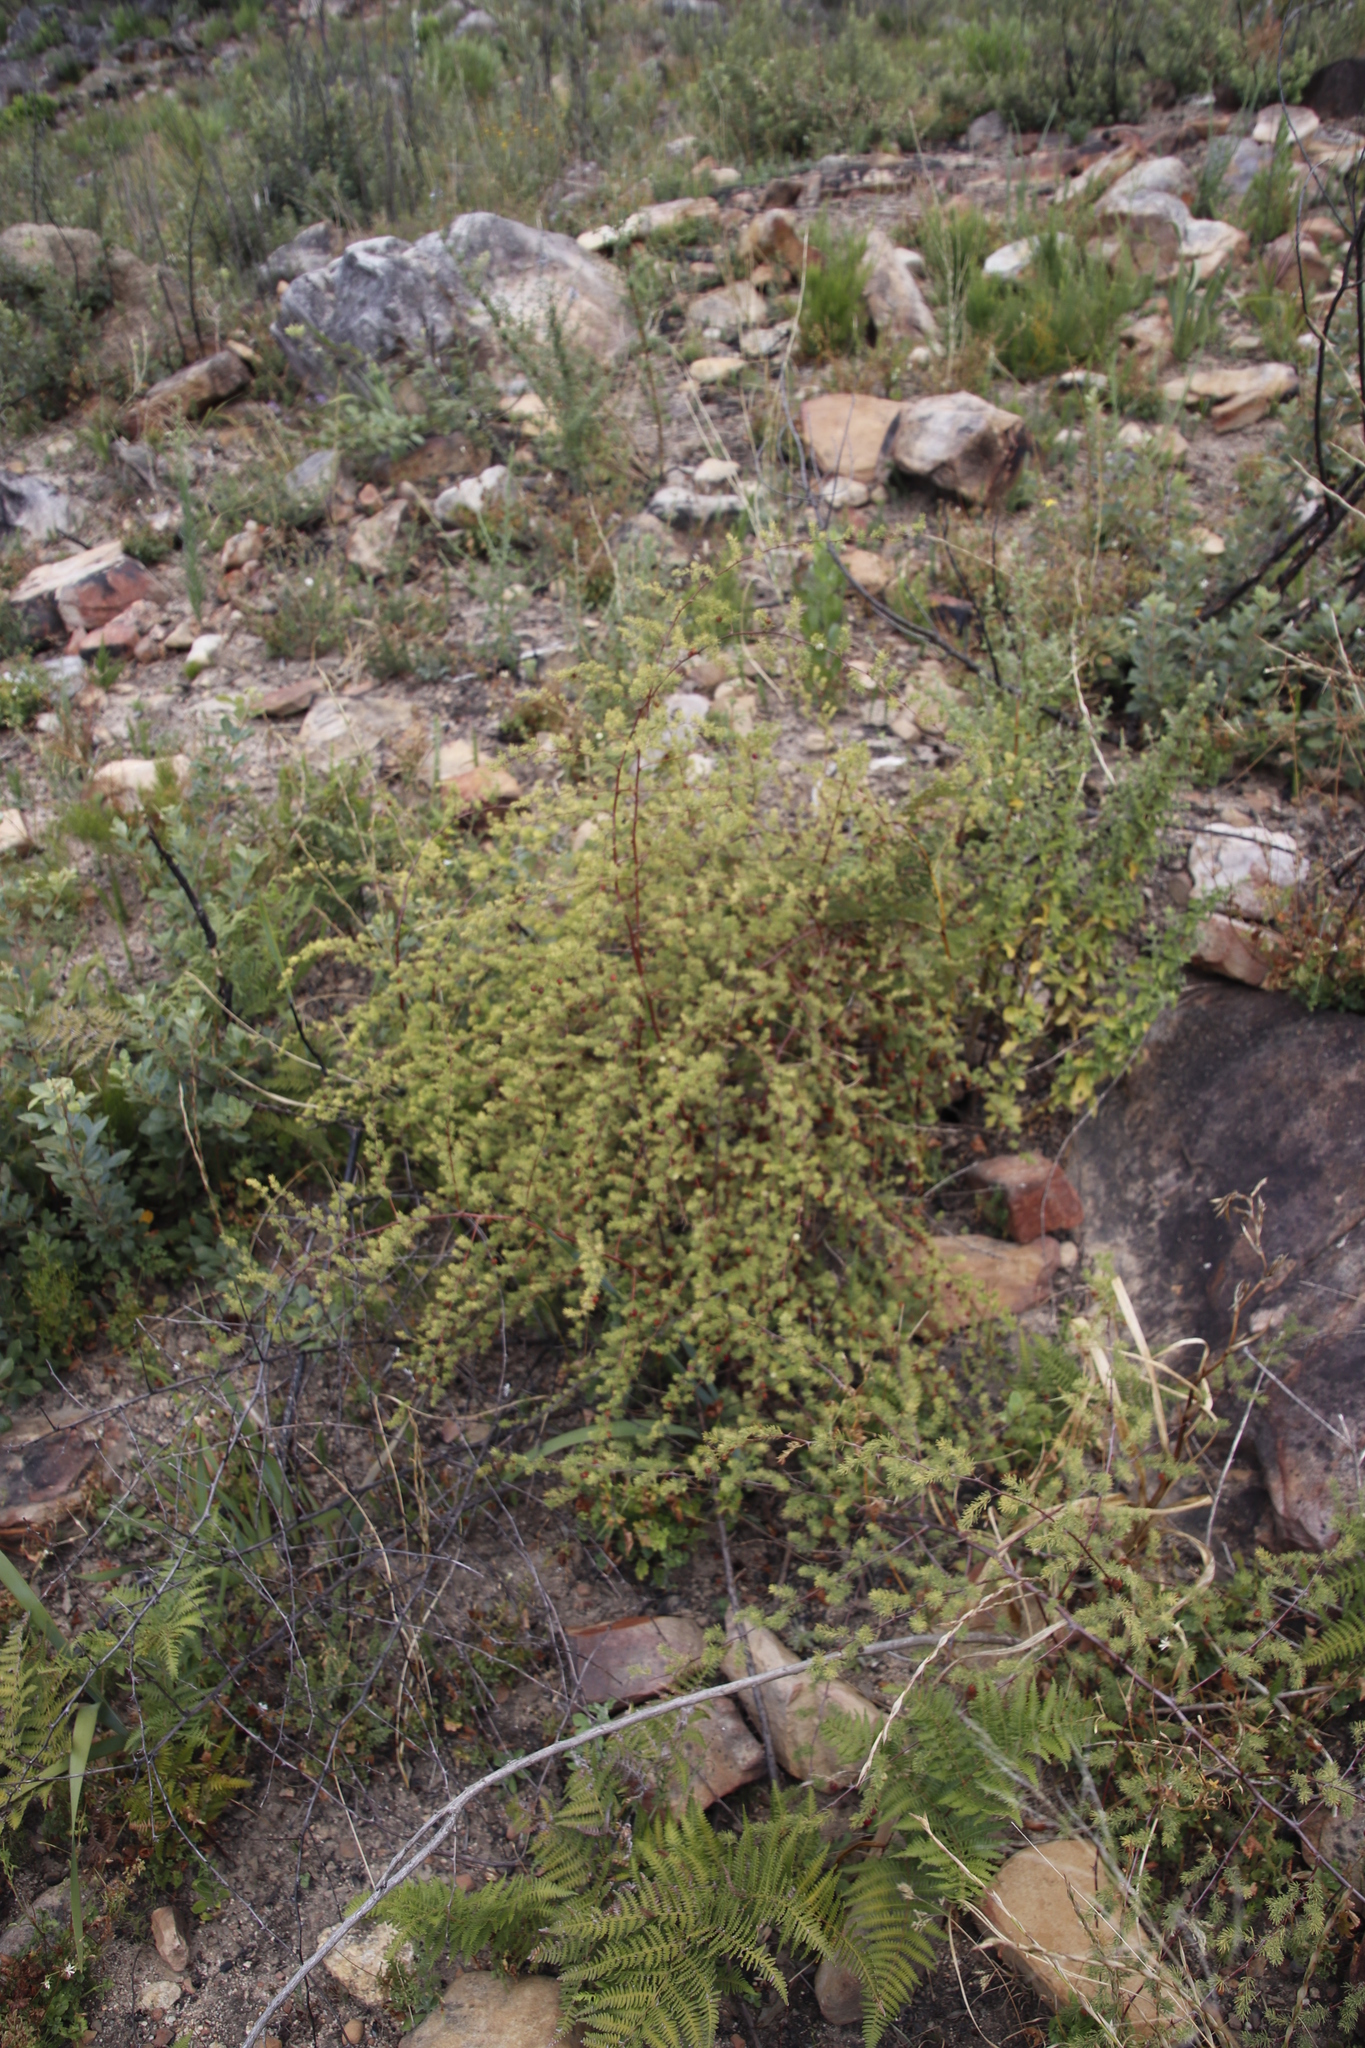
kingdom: Plantae
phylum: Tracheophyta
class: Liliopsida
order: Asparagales
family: Asparagaceae
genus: Asparagus
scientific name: Asparagus rubicundus
